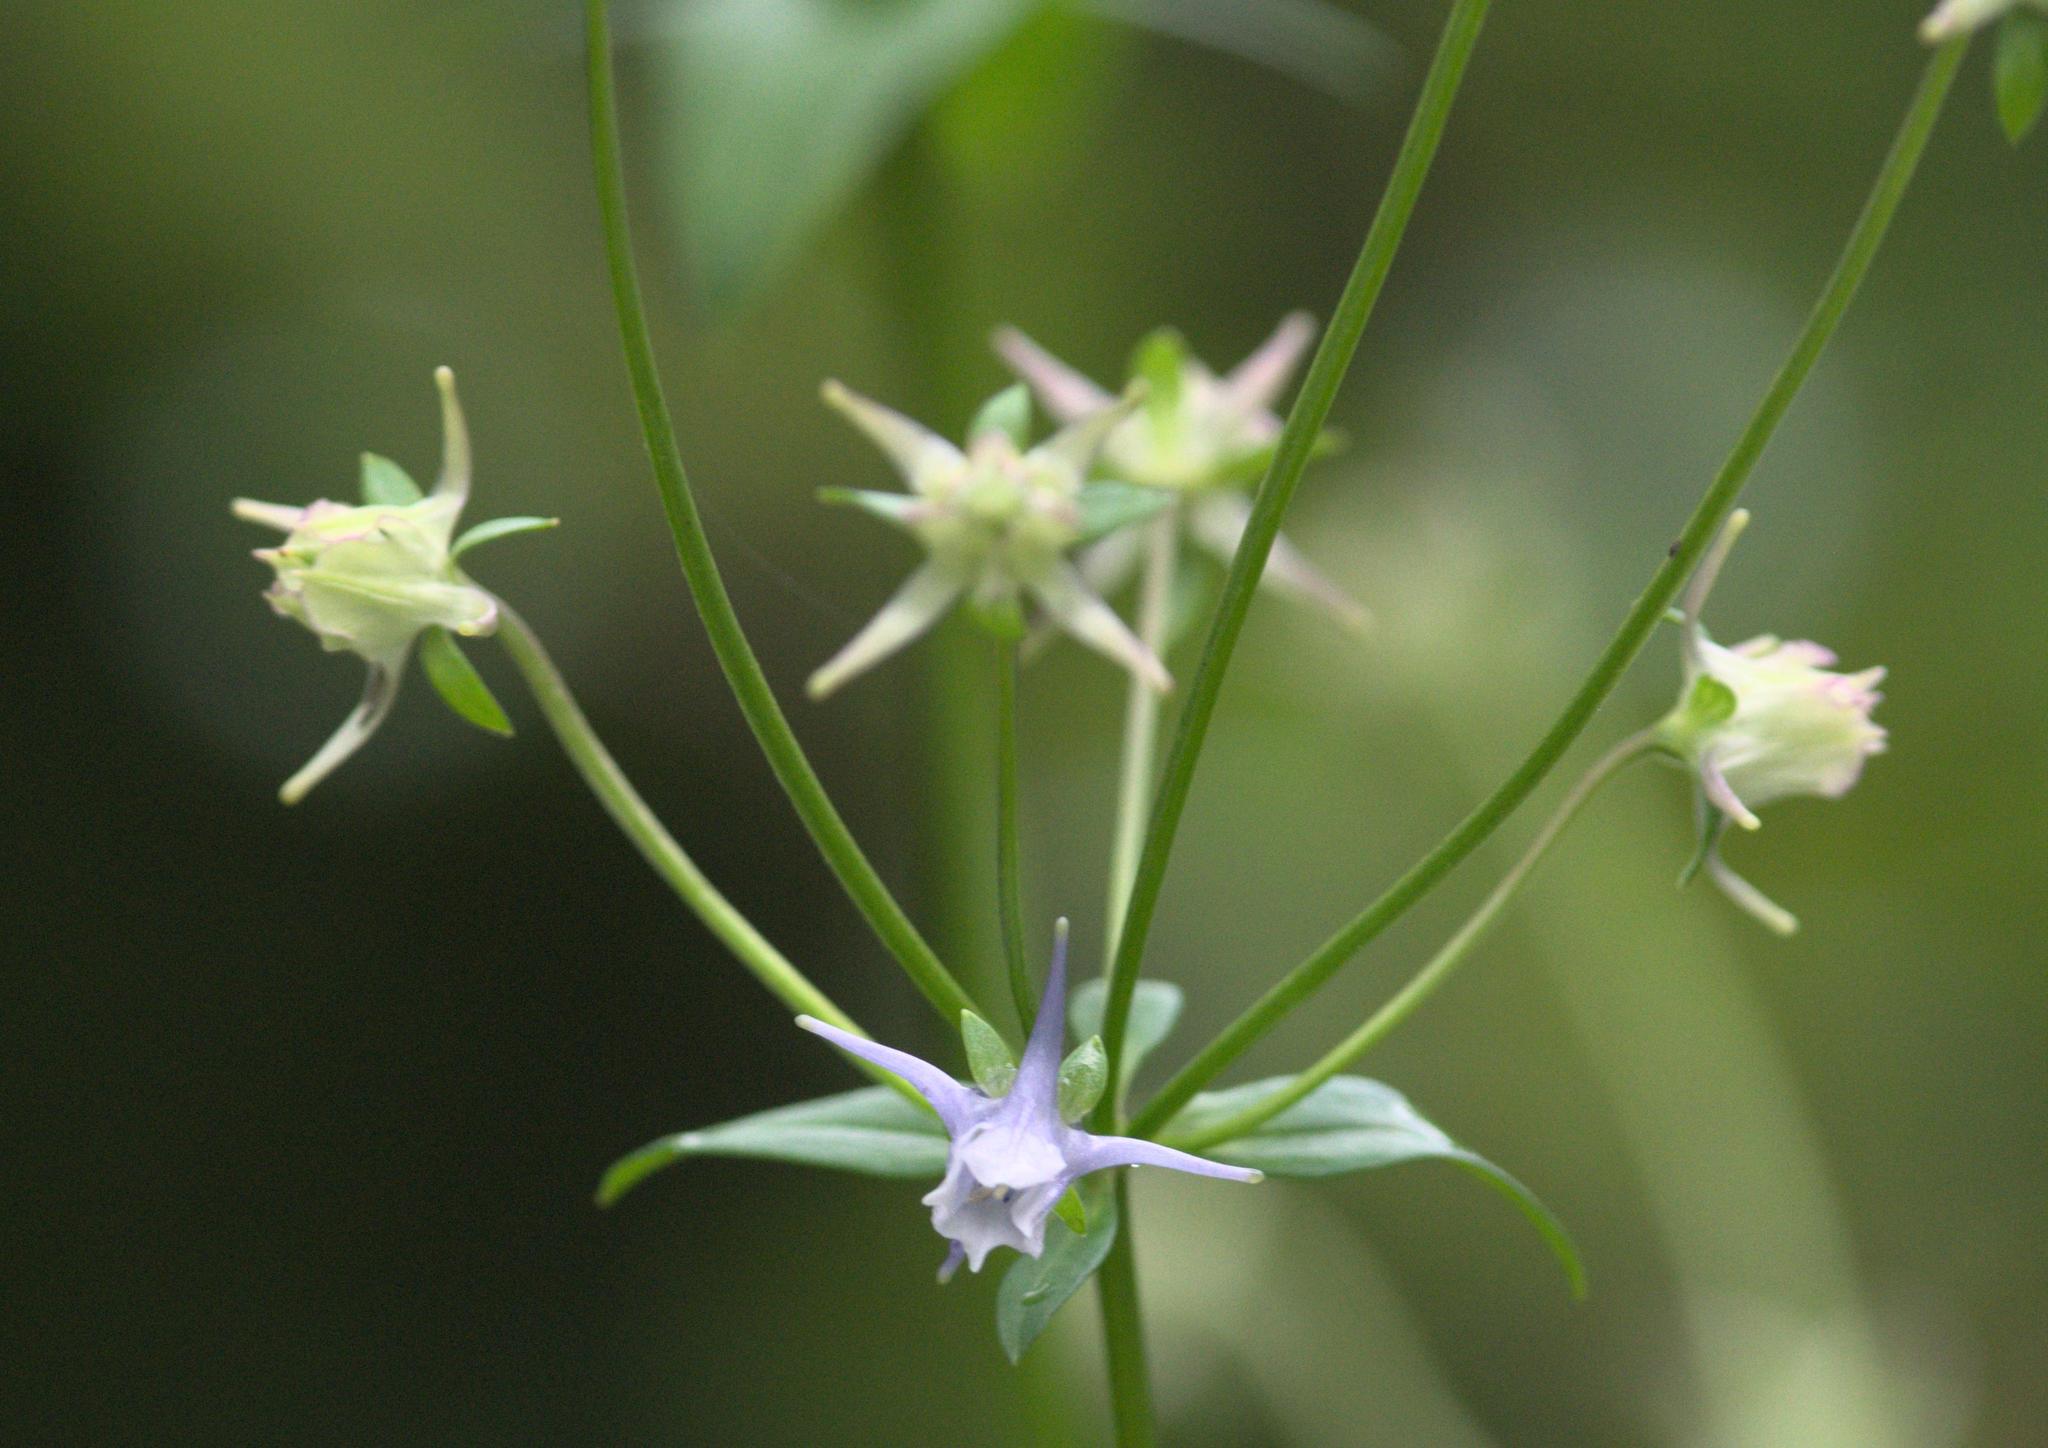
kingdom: Plantae
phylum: Tracheophyta
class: Magnoliopsida
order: Gentianales
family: Gentianaceae
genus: Halenia
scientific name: Halenia elliptica
